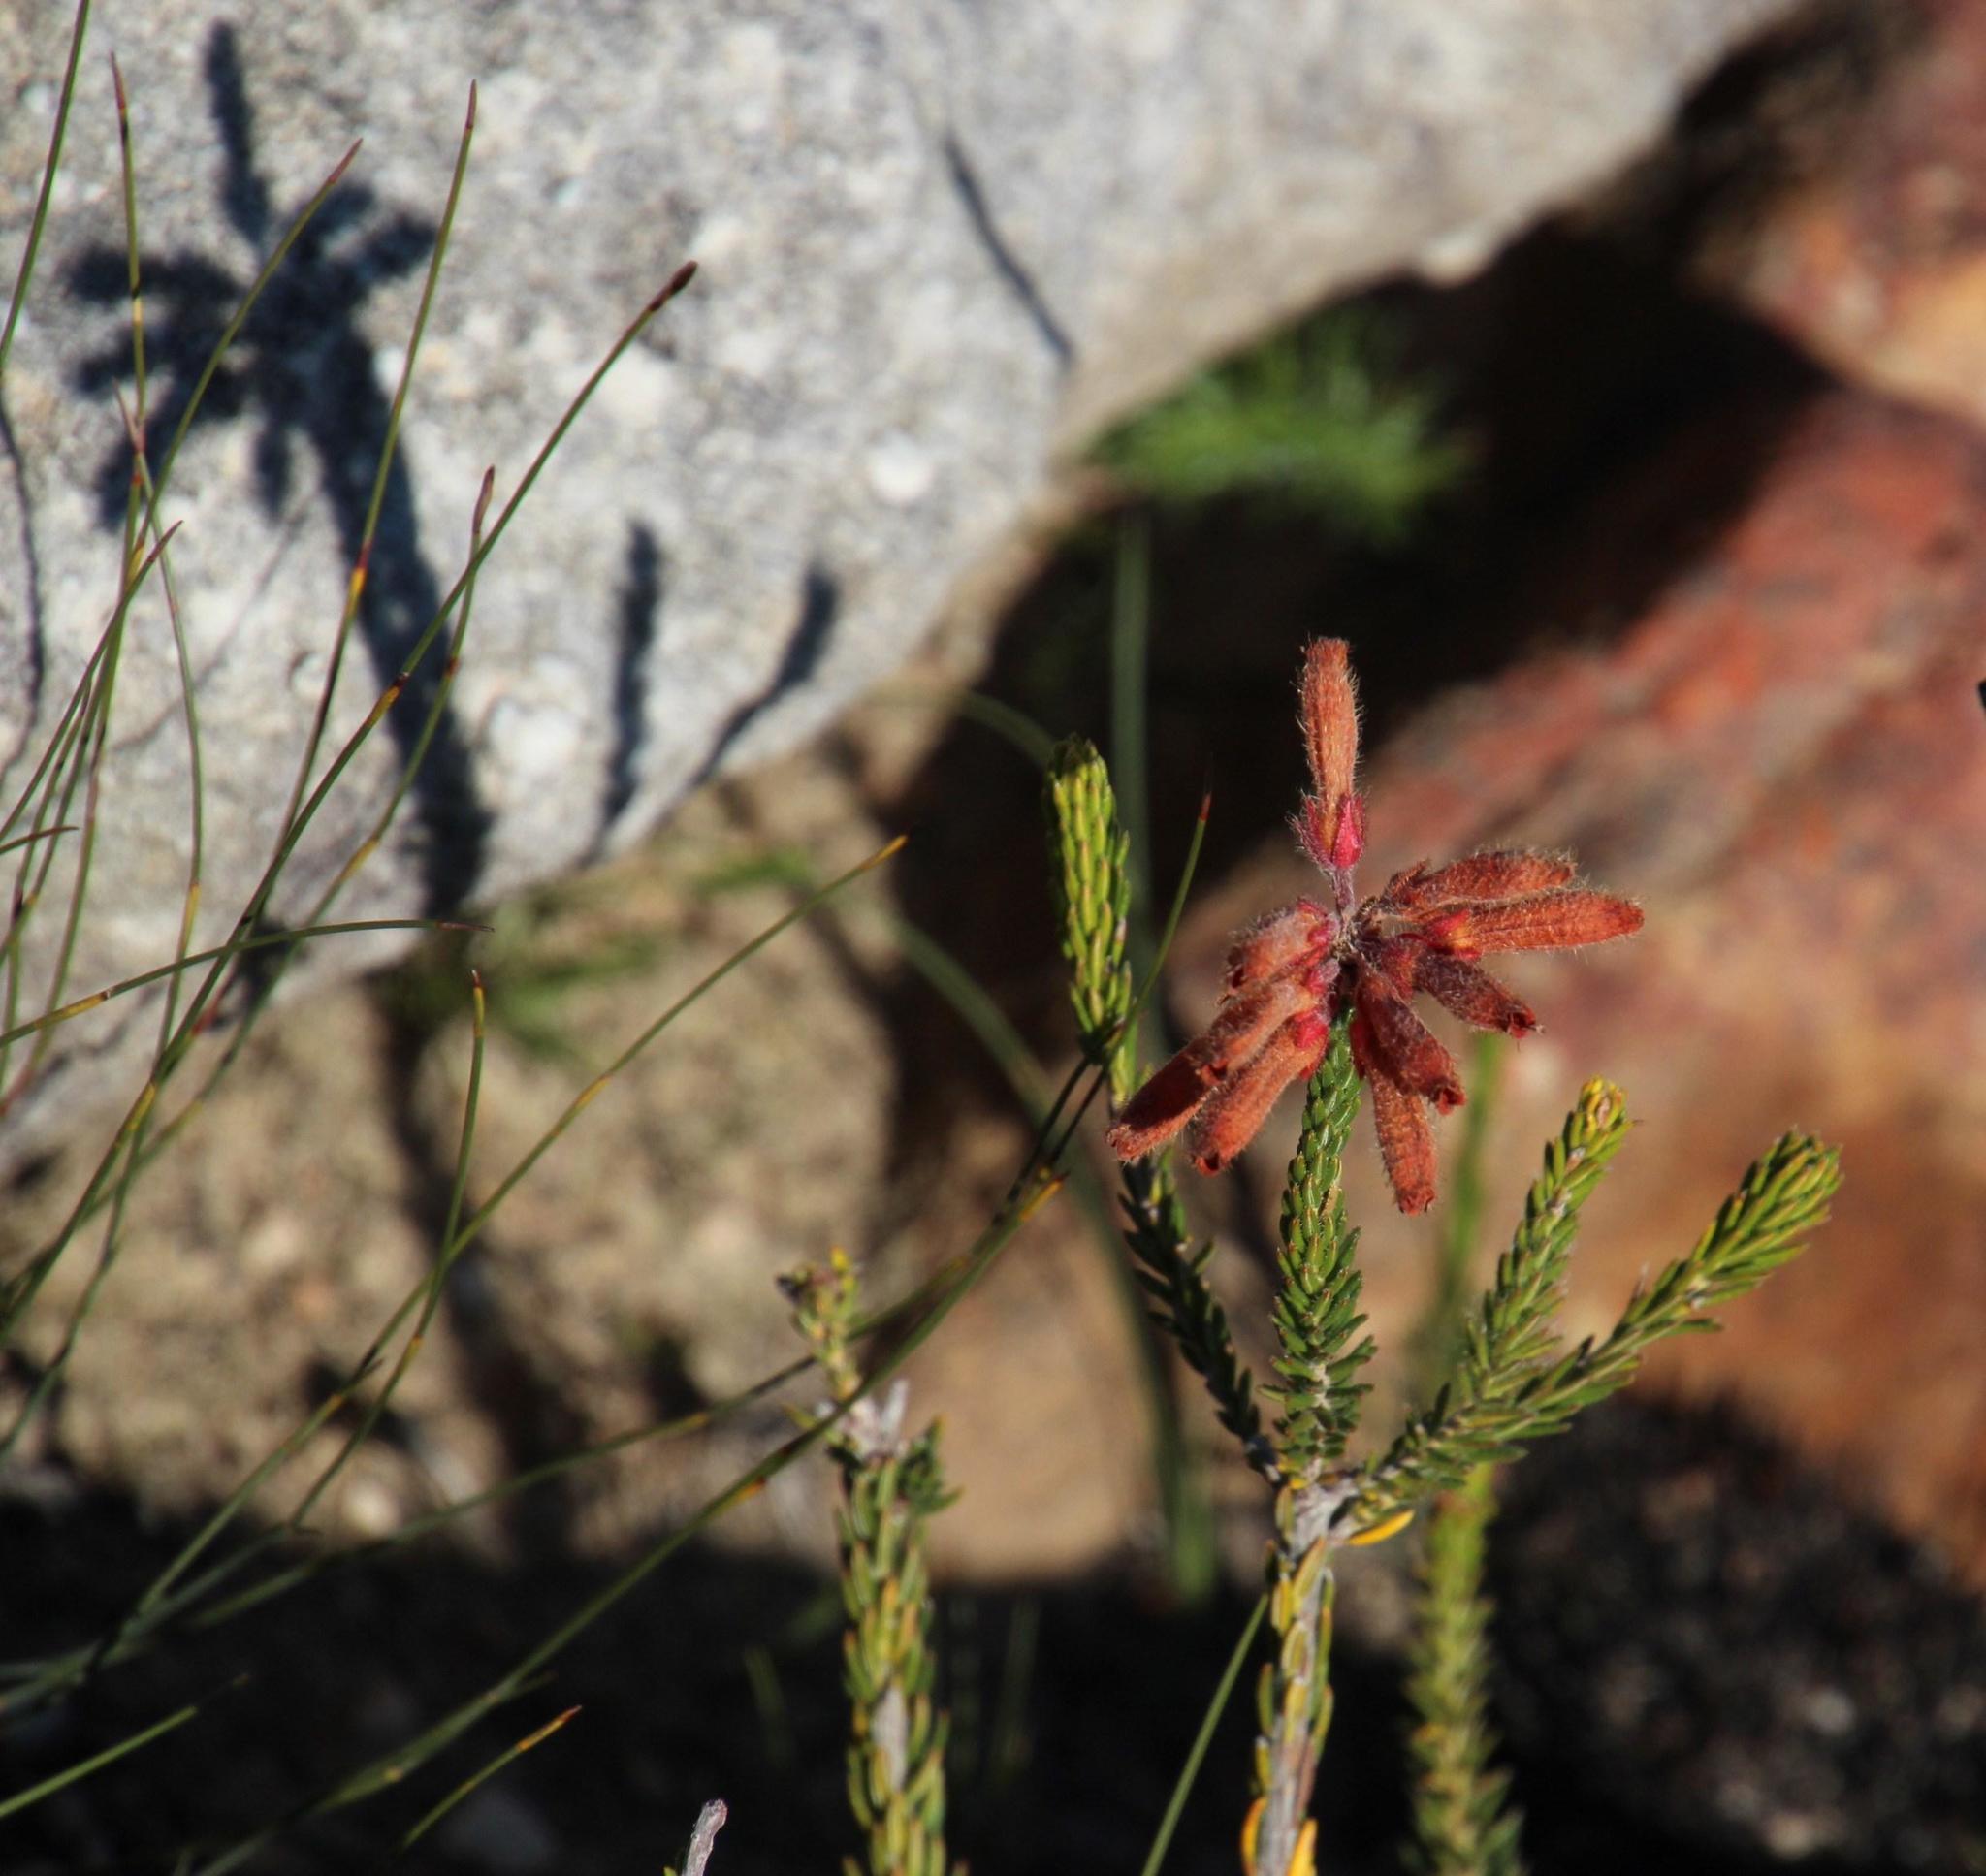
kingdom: Plantae
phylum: Tracheophyta
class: Magnoliopsida
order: Ericales
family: Ericaceae
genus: Erica
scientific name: Erica cerinthoides
